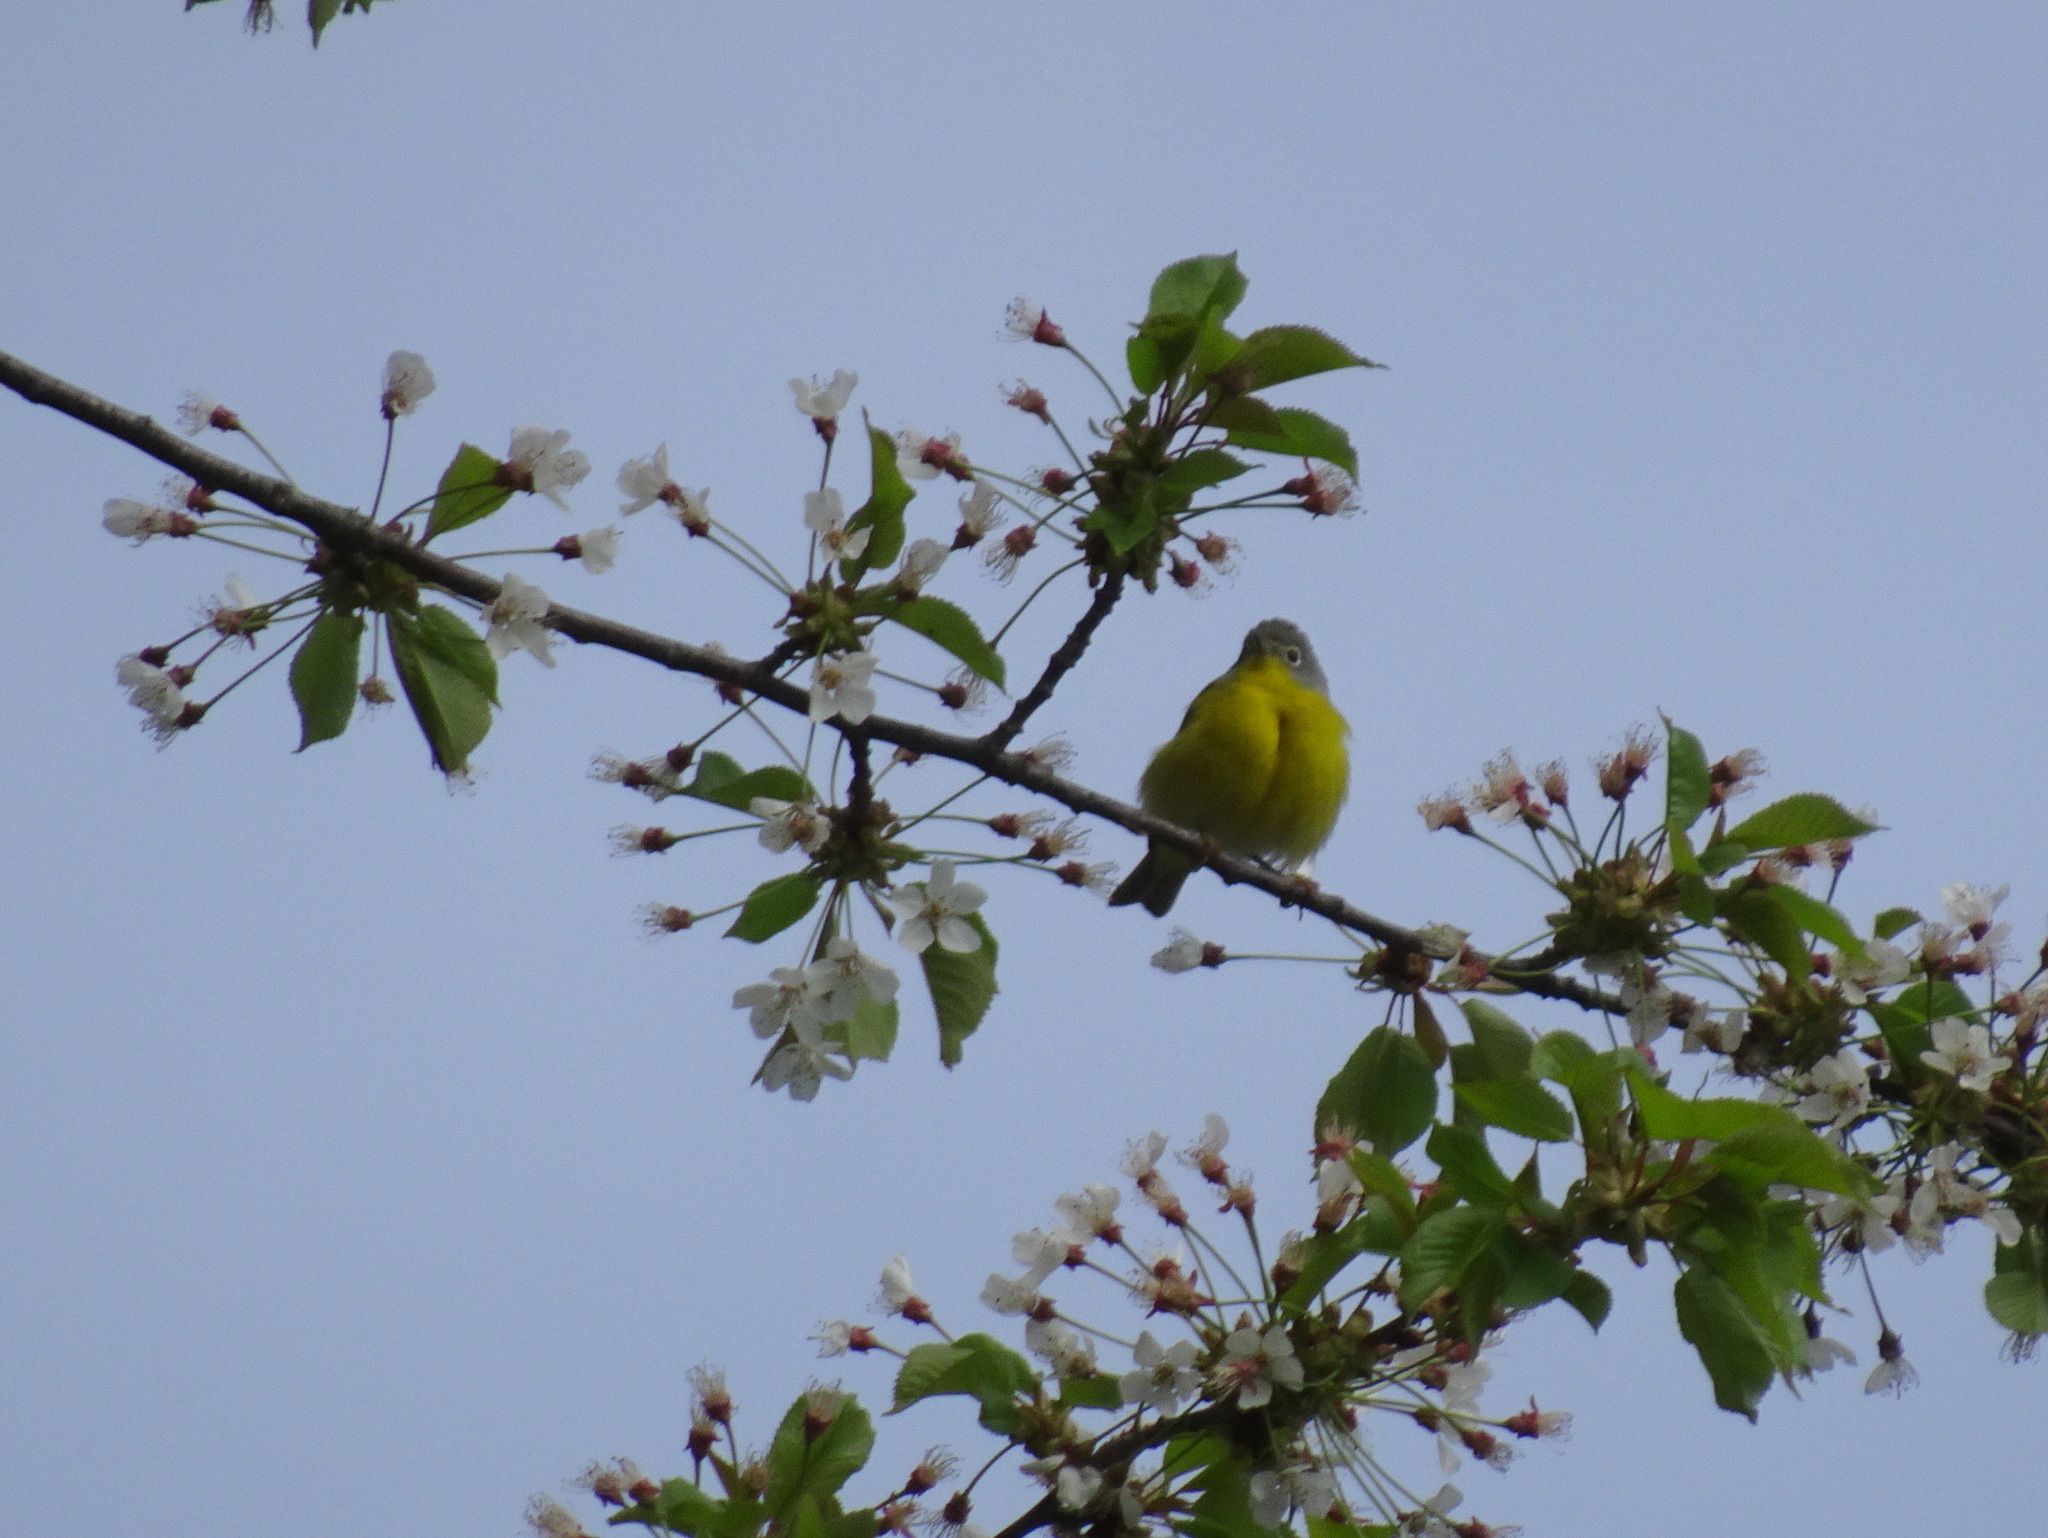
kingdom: Animalia
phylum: Chordata
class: Aves
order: Passeriformes
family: Parulidae
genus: Leiothlypis
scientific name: Leiothlypis ruficapilla
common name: Nashville warbler
